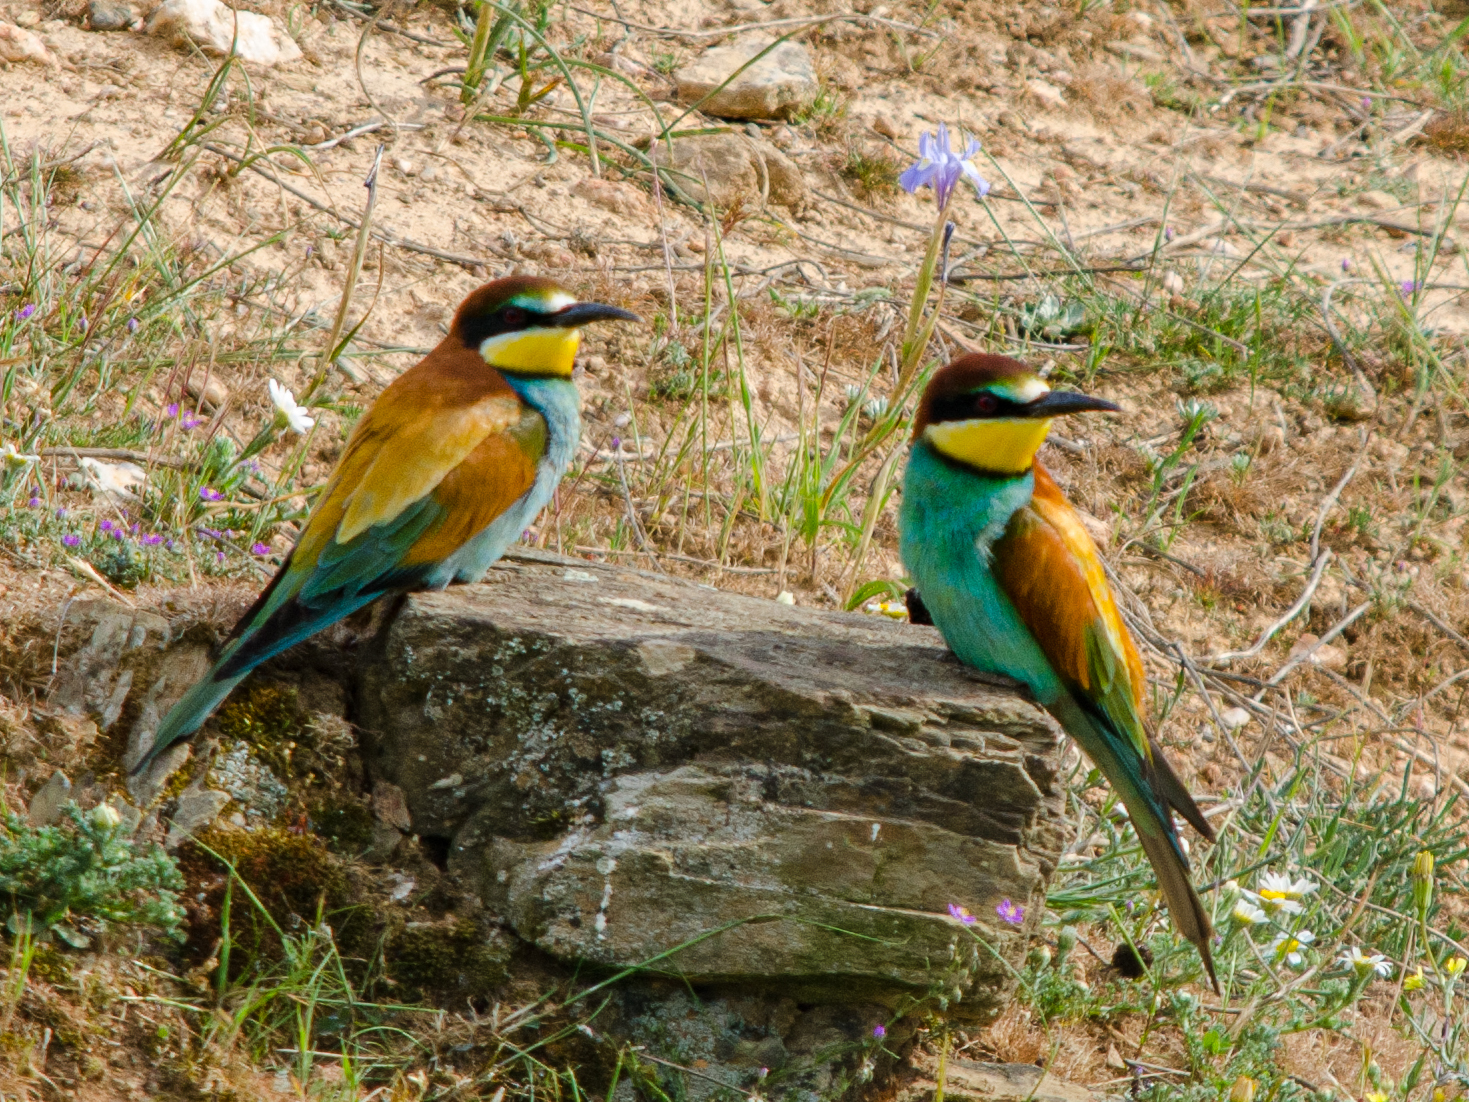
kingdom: Animalia
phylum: Chordata
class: Aves
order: Coraciiformes
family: Meropidae
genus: Merops
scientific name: Merops apiaster
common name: European bee-eater
